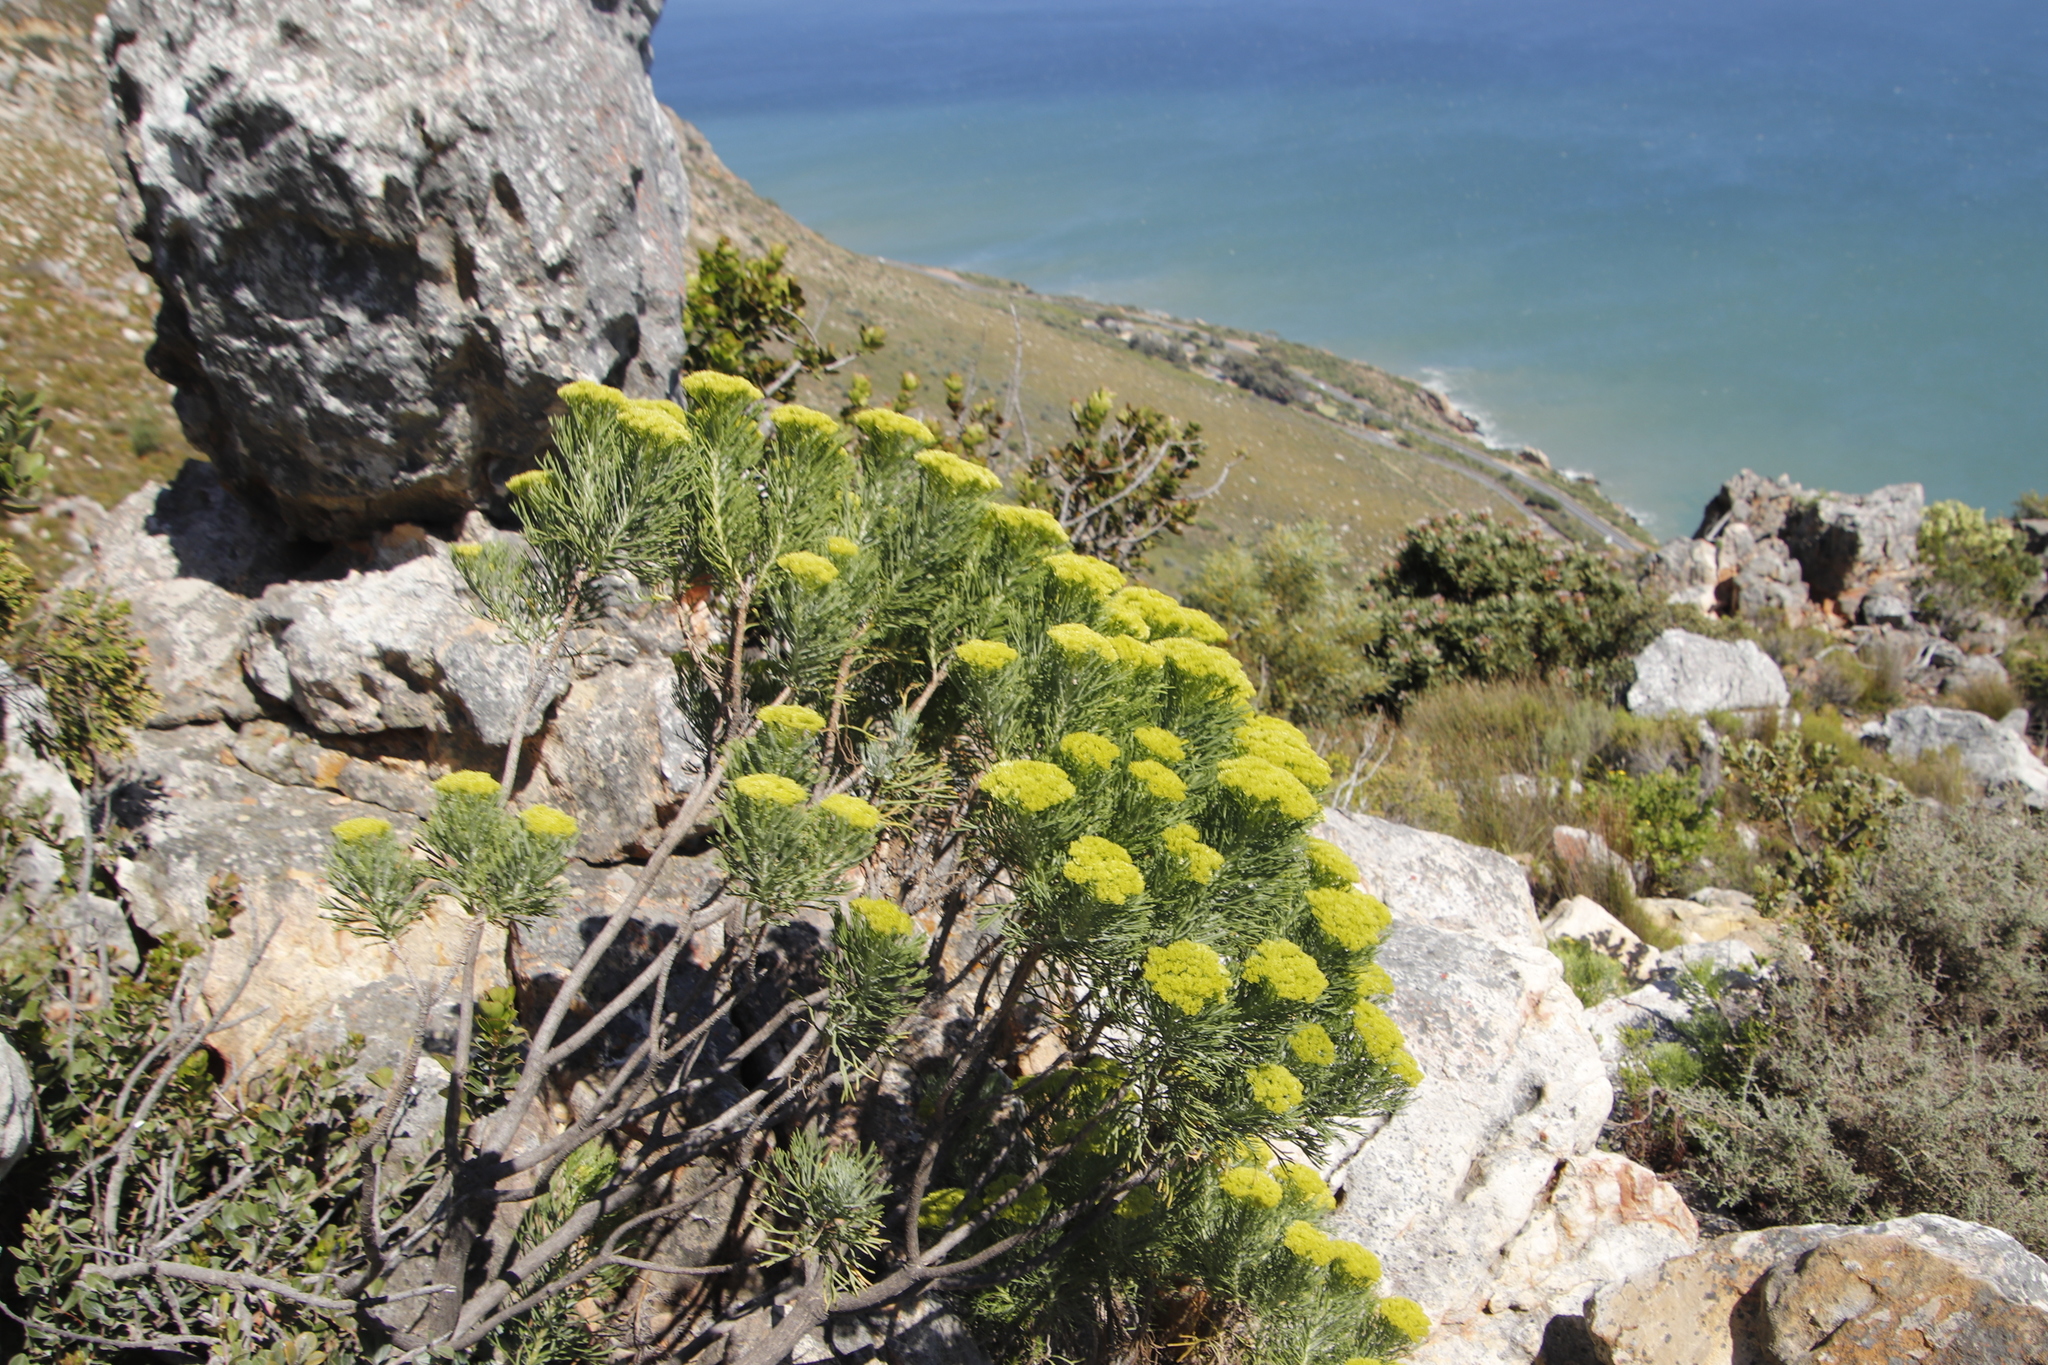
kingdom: Plantae
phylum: Tracheophyta
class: Magnoliopsida
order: Asterales
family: Asteraceae
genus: Hymenolepis
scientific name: Hymenolepis crithmifolia
